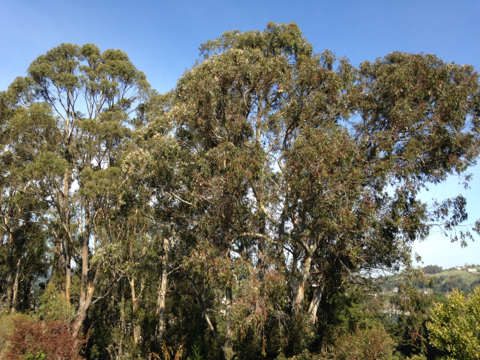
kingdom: Plantae
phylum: Tracheophyta
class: Magnoliopsida
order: Myrtales
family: Myrtaceae
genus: Eucalyptus
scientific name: Eucalyptus globulus
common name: Southern blue-gum
